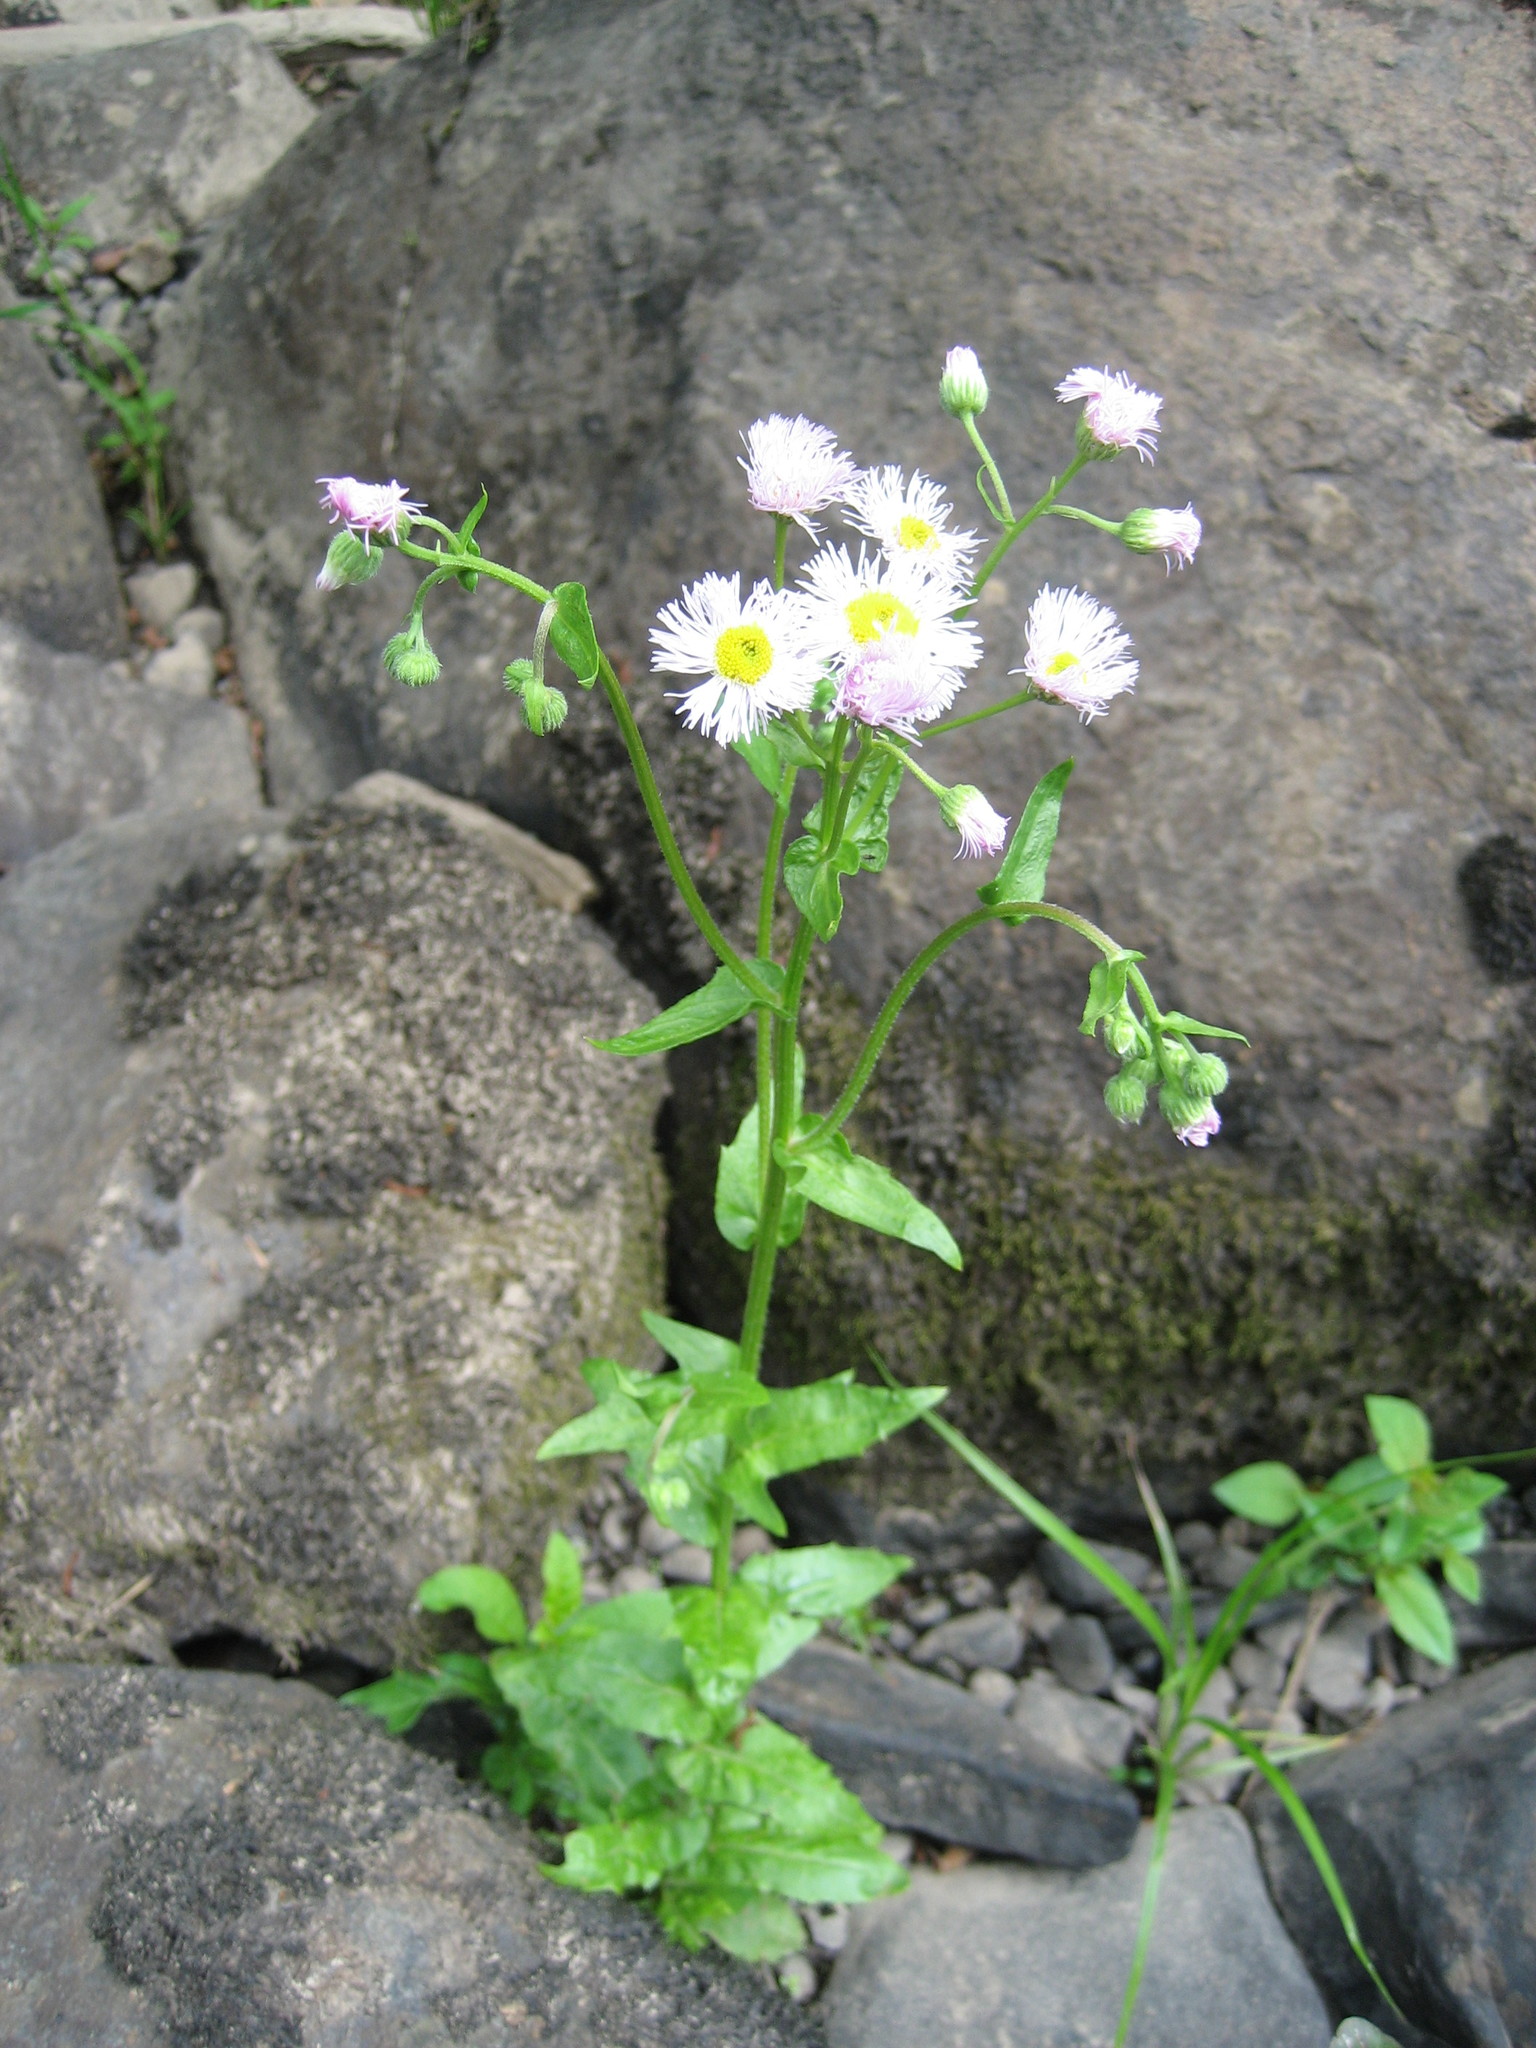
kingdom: Plantae
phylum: Tracheophyta
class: Magnoliopsida
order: Asterales
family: Asteraceae
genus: Erigeron
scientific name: Erigeron philadelphicus
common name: Robin's-plantain
